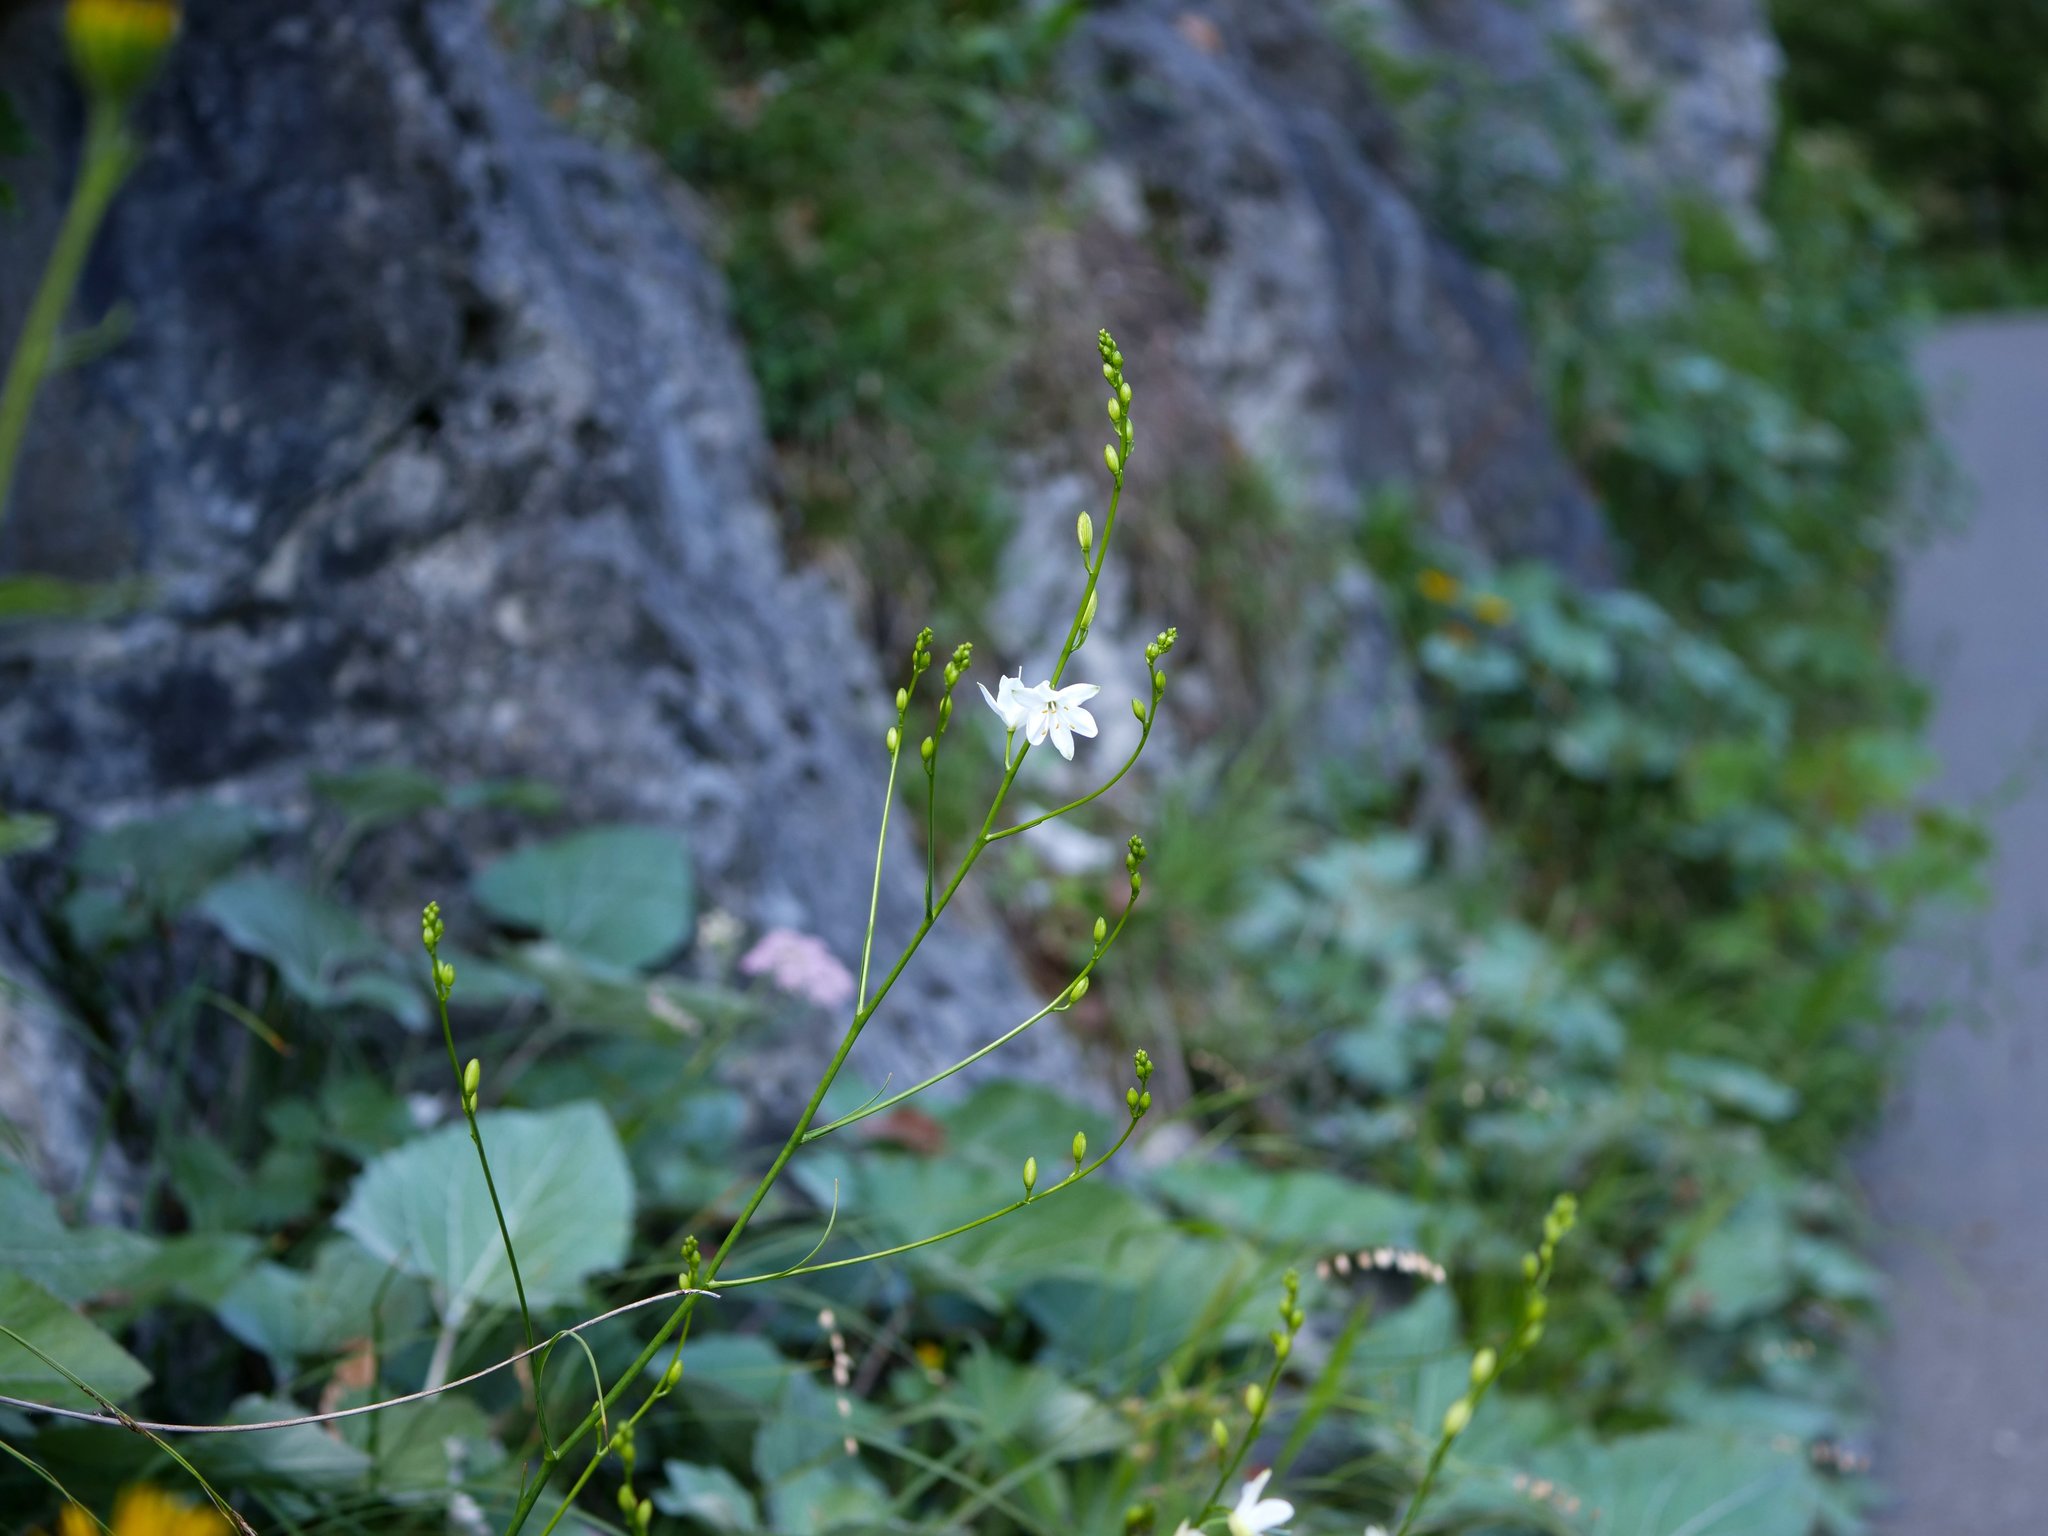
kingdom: Plantae
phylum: Tracheophyta
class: Liliopsida
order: Asparagales
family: Asparagaceae
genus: Anthericum
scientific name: Anthericum ramosum
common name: Branched st. bernard's-lily
